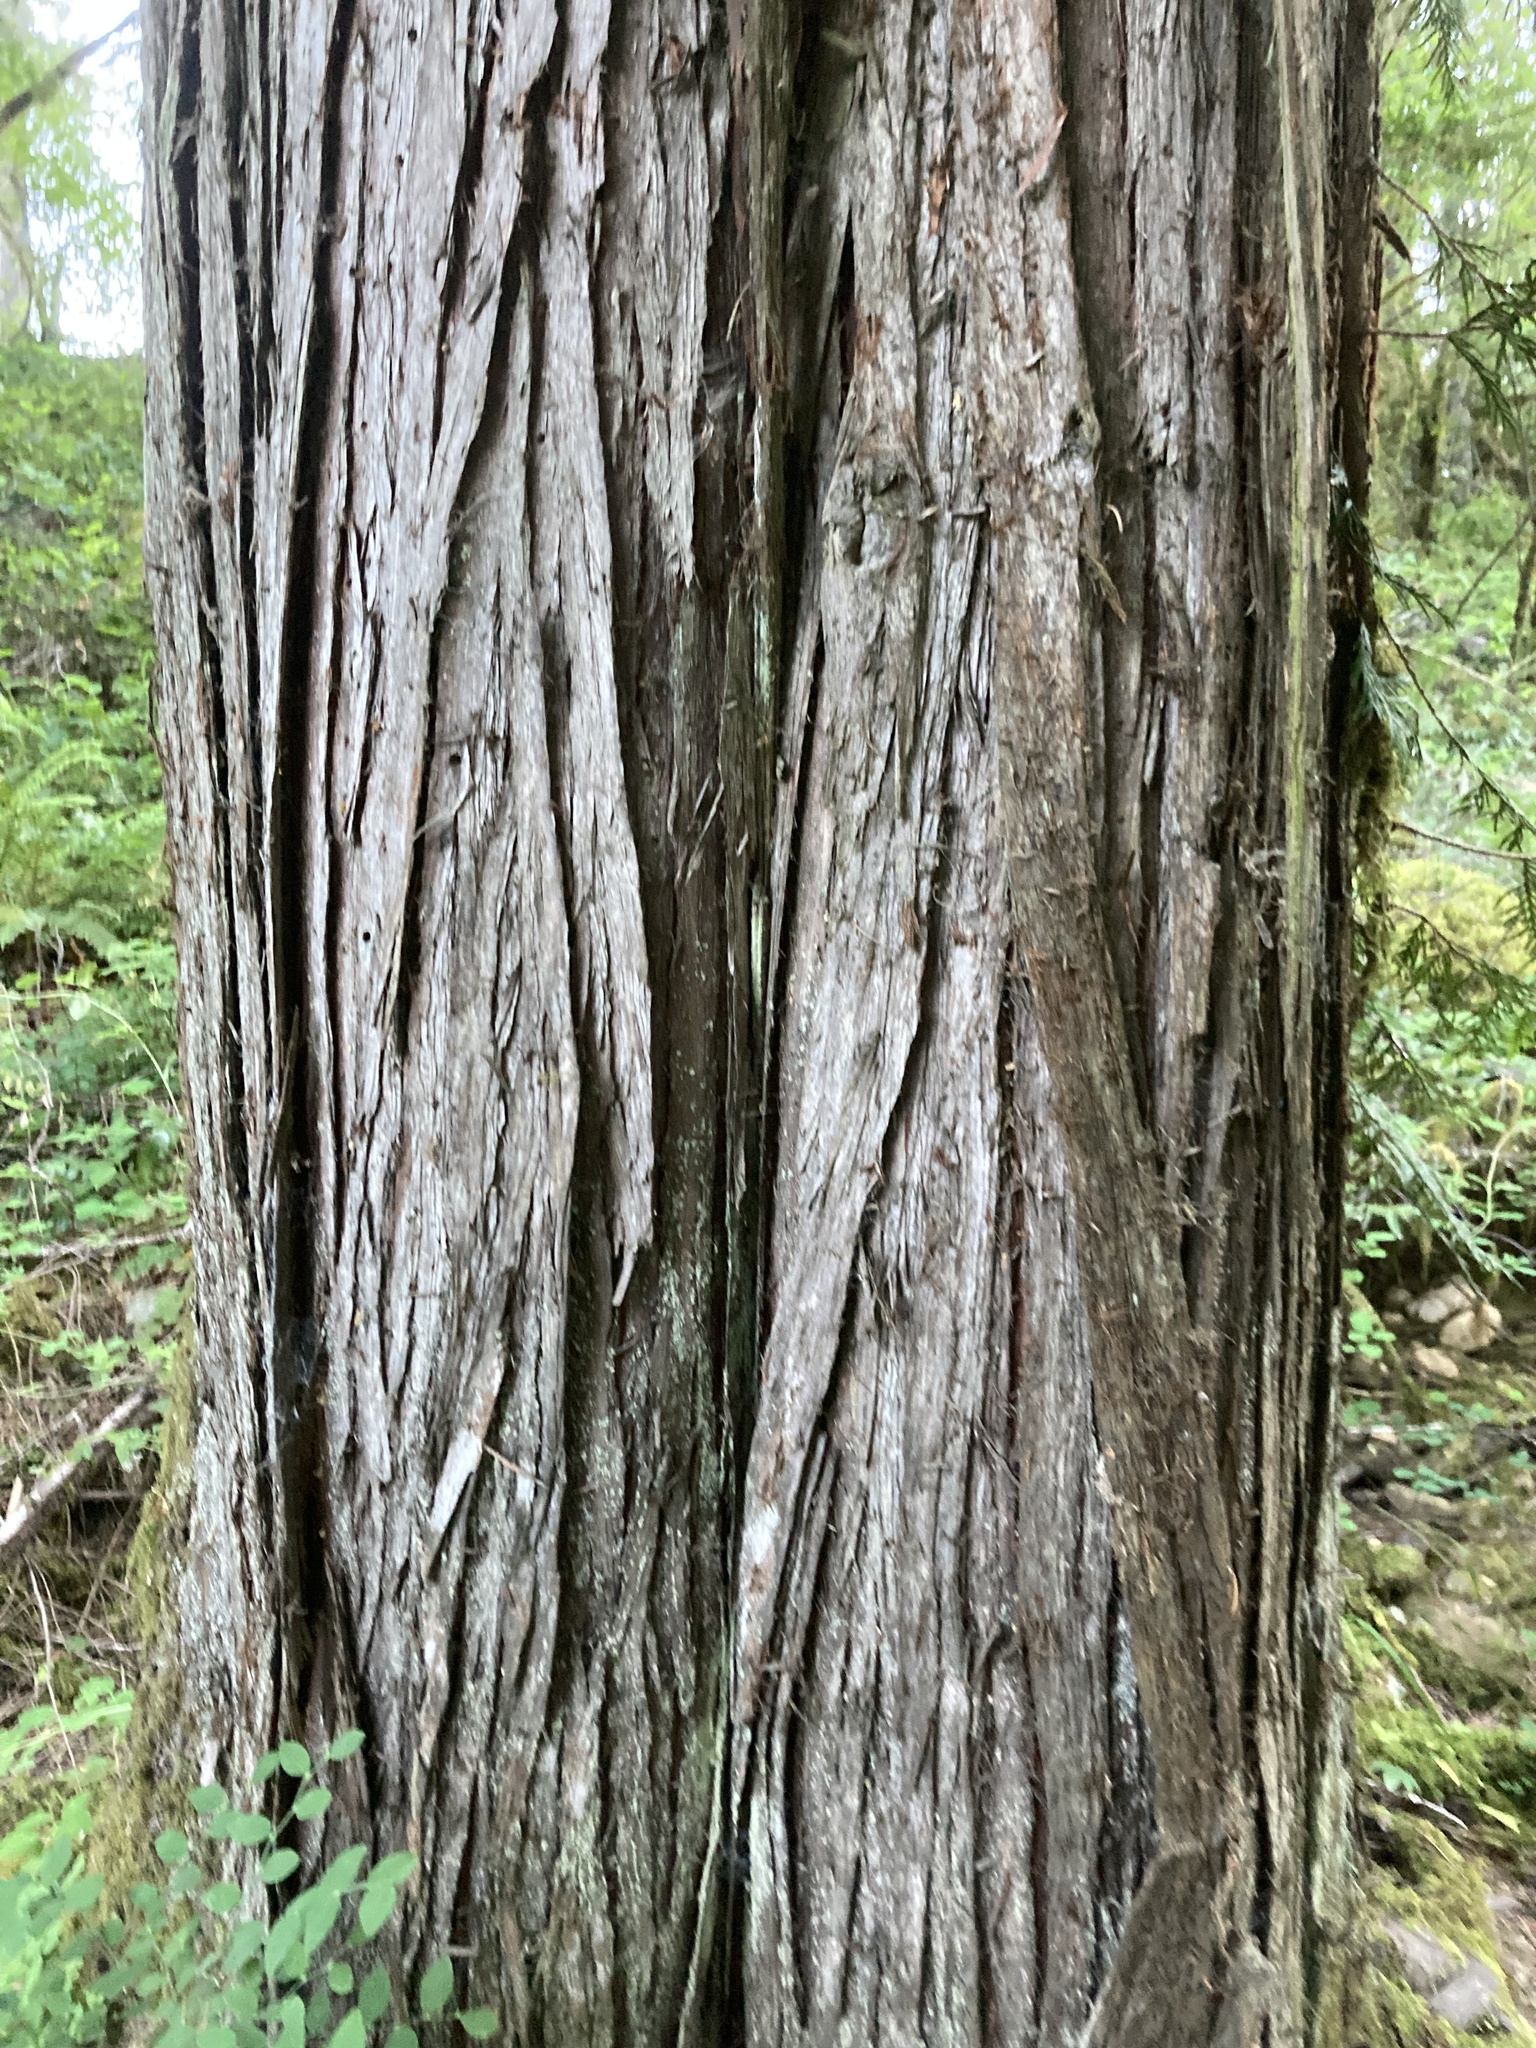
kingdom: Plantae
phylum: Tracheophyta
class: Pinopsida
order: Pinales
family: Cupressaceae
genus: Thuja
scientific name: Thuja plicata
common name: Western red-cedar
